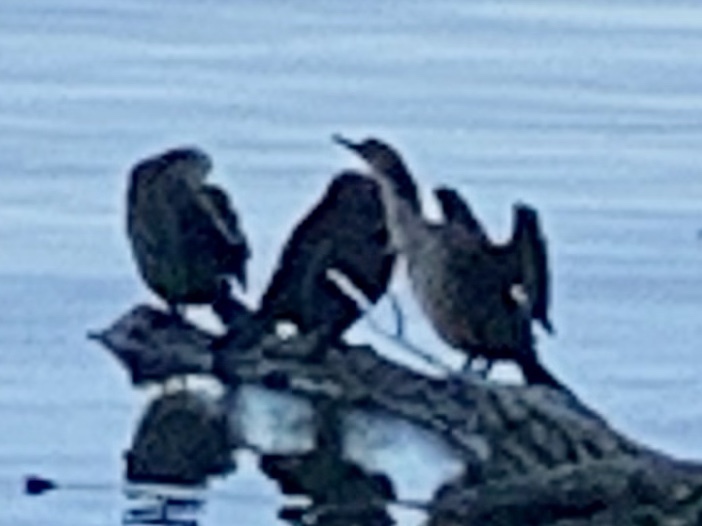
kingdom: Animalia
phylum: Chordata
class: Aves
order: Suliformes
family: Phalacrocoracidae
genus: Phalacrocorax
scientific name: Phalacrocorax auritus
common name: Double-crested cormorant
